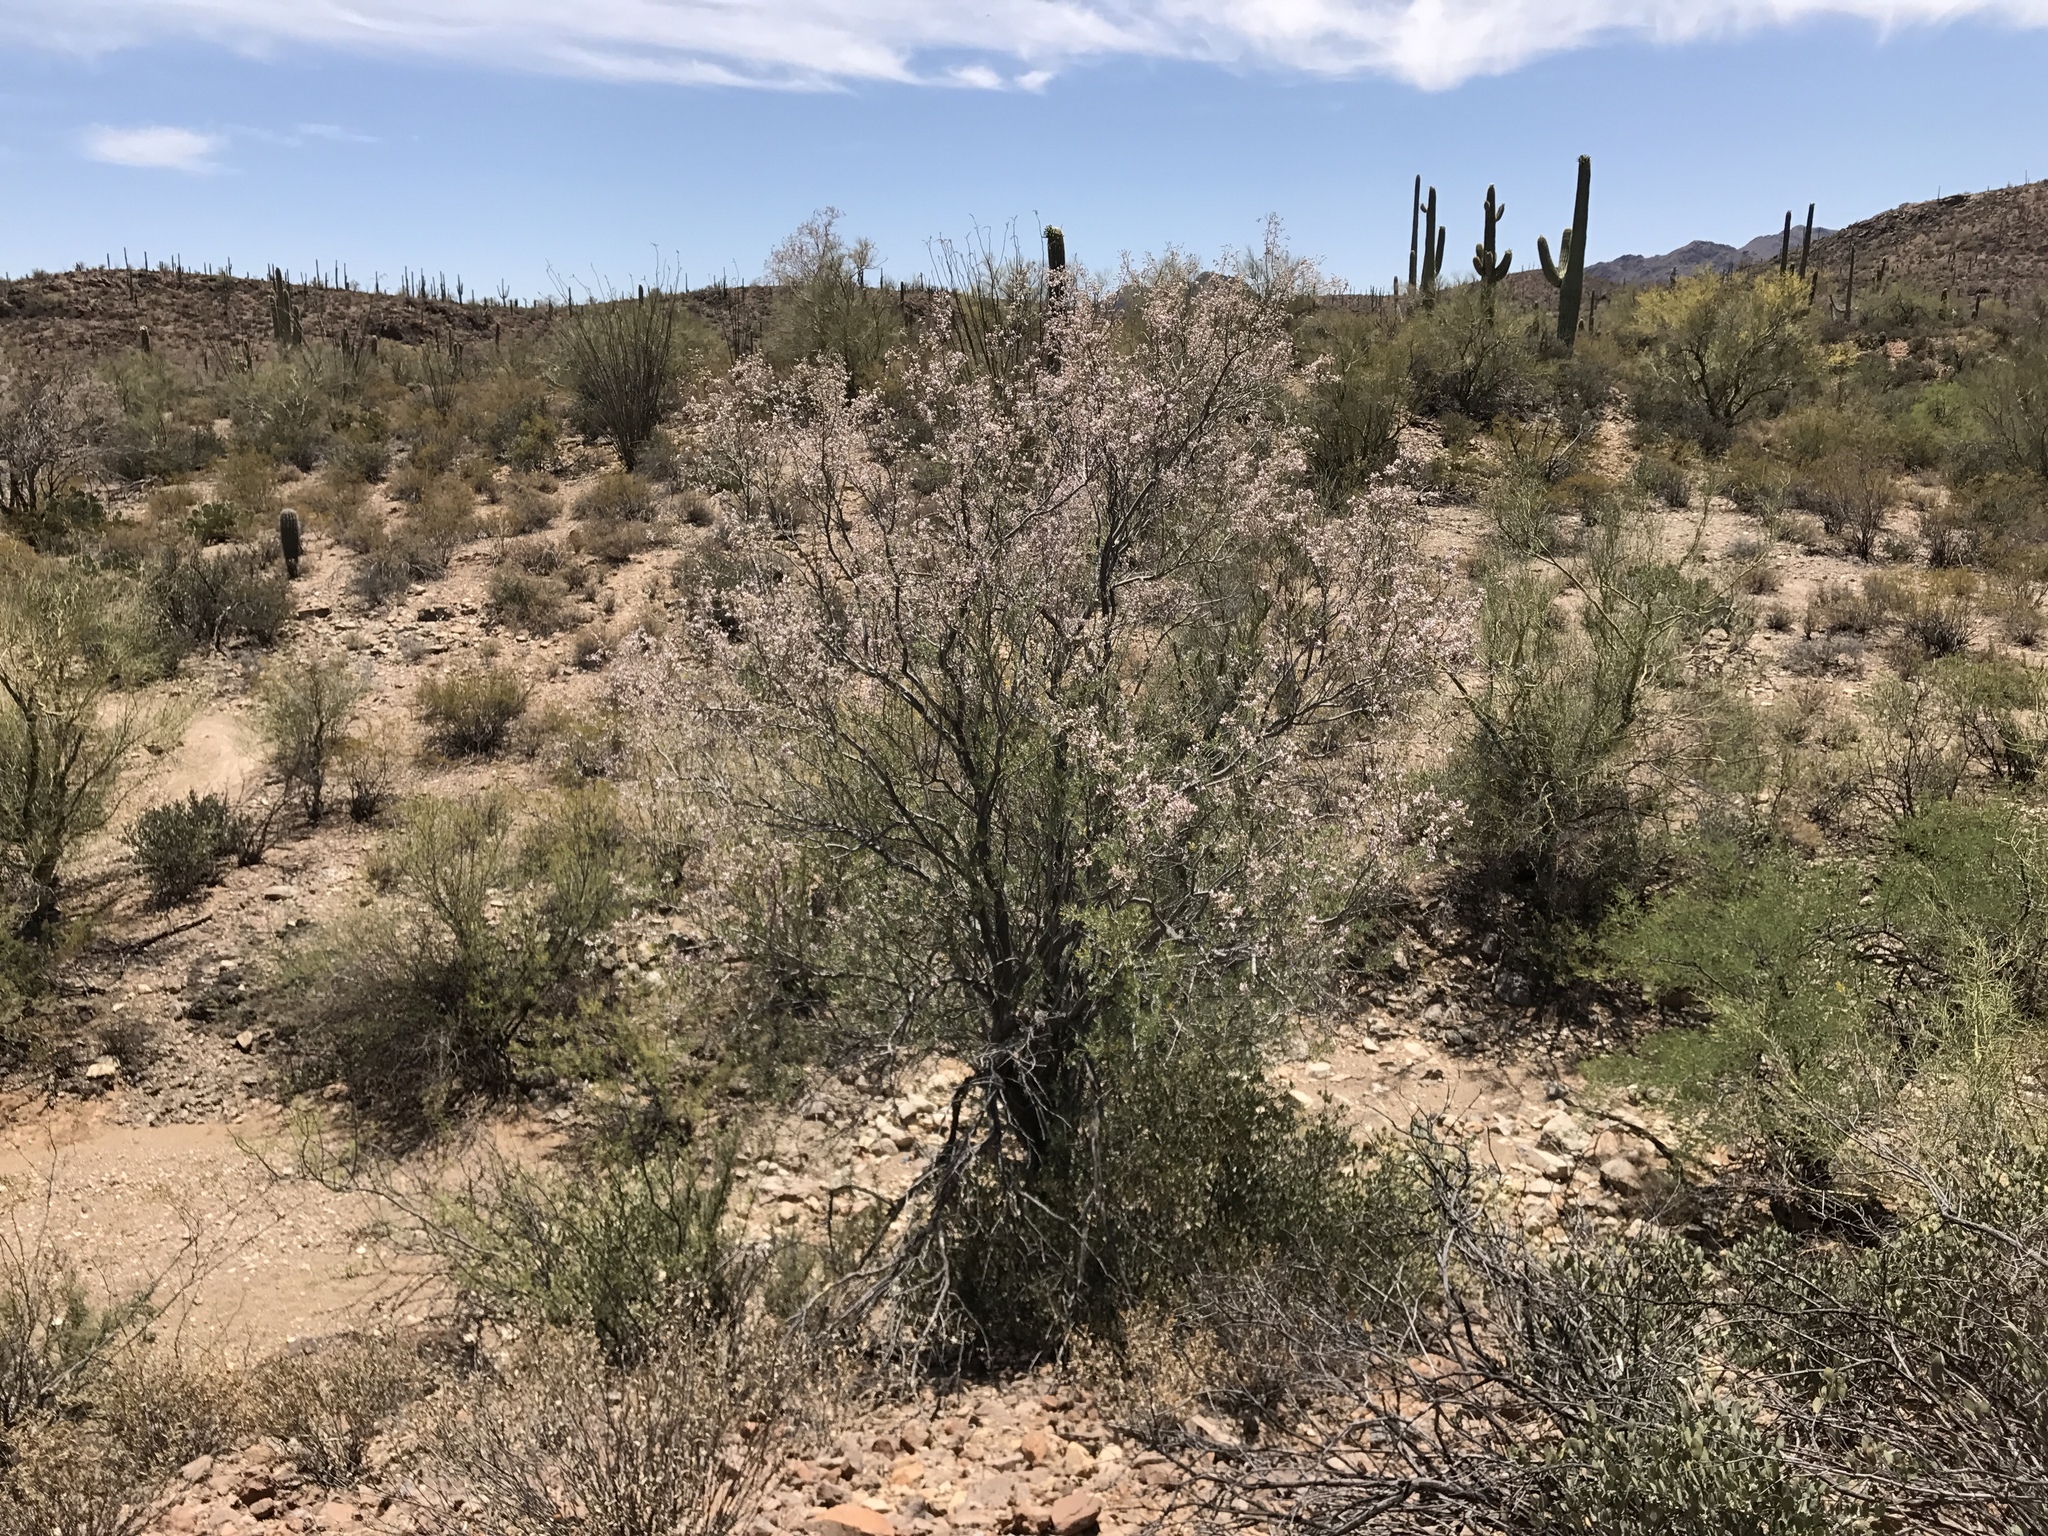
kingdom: Plantae
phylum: Tracheophyta
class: Magnoliopsida
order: Fabales
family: Fabaceae
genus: Olneya
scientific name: Olneya tesota
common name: Desert ironwood
